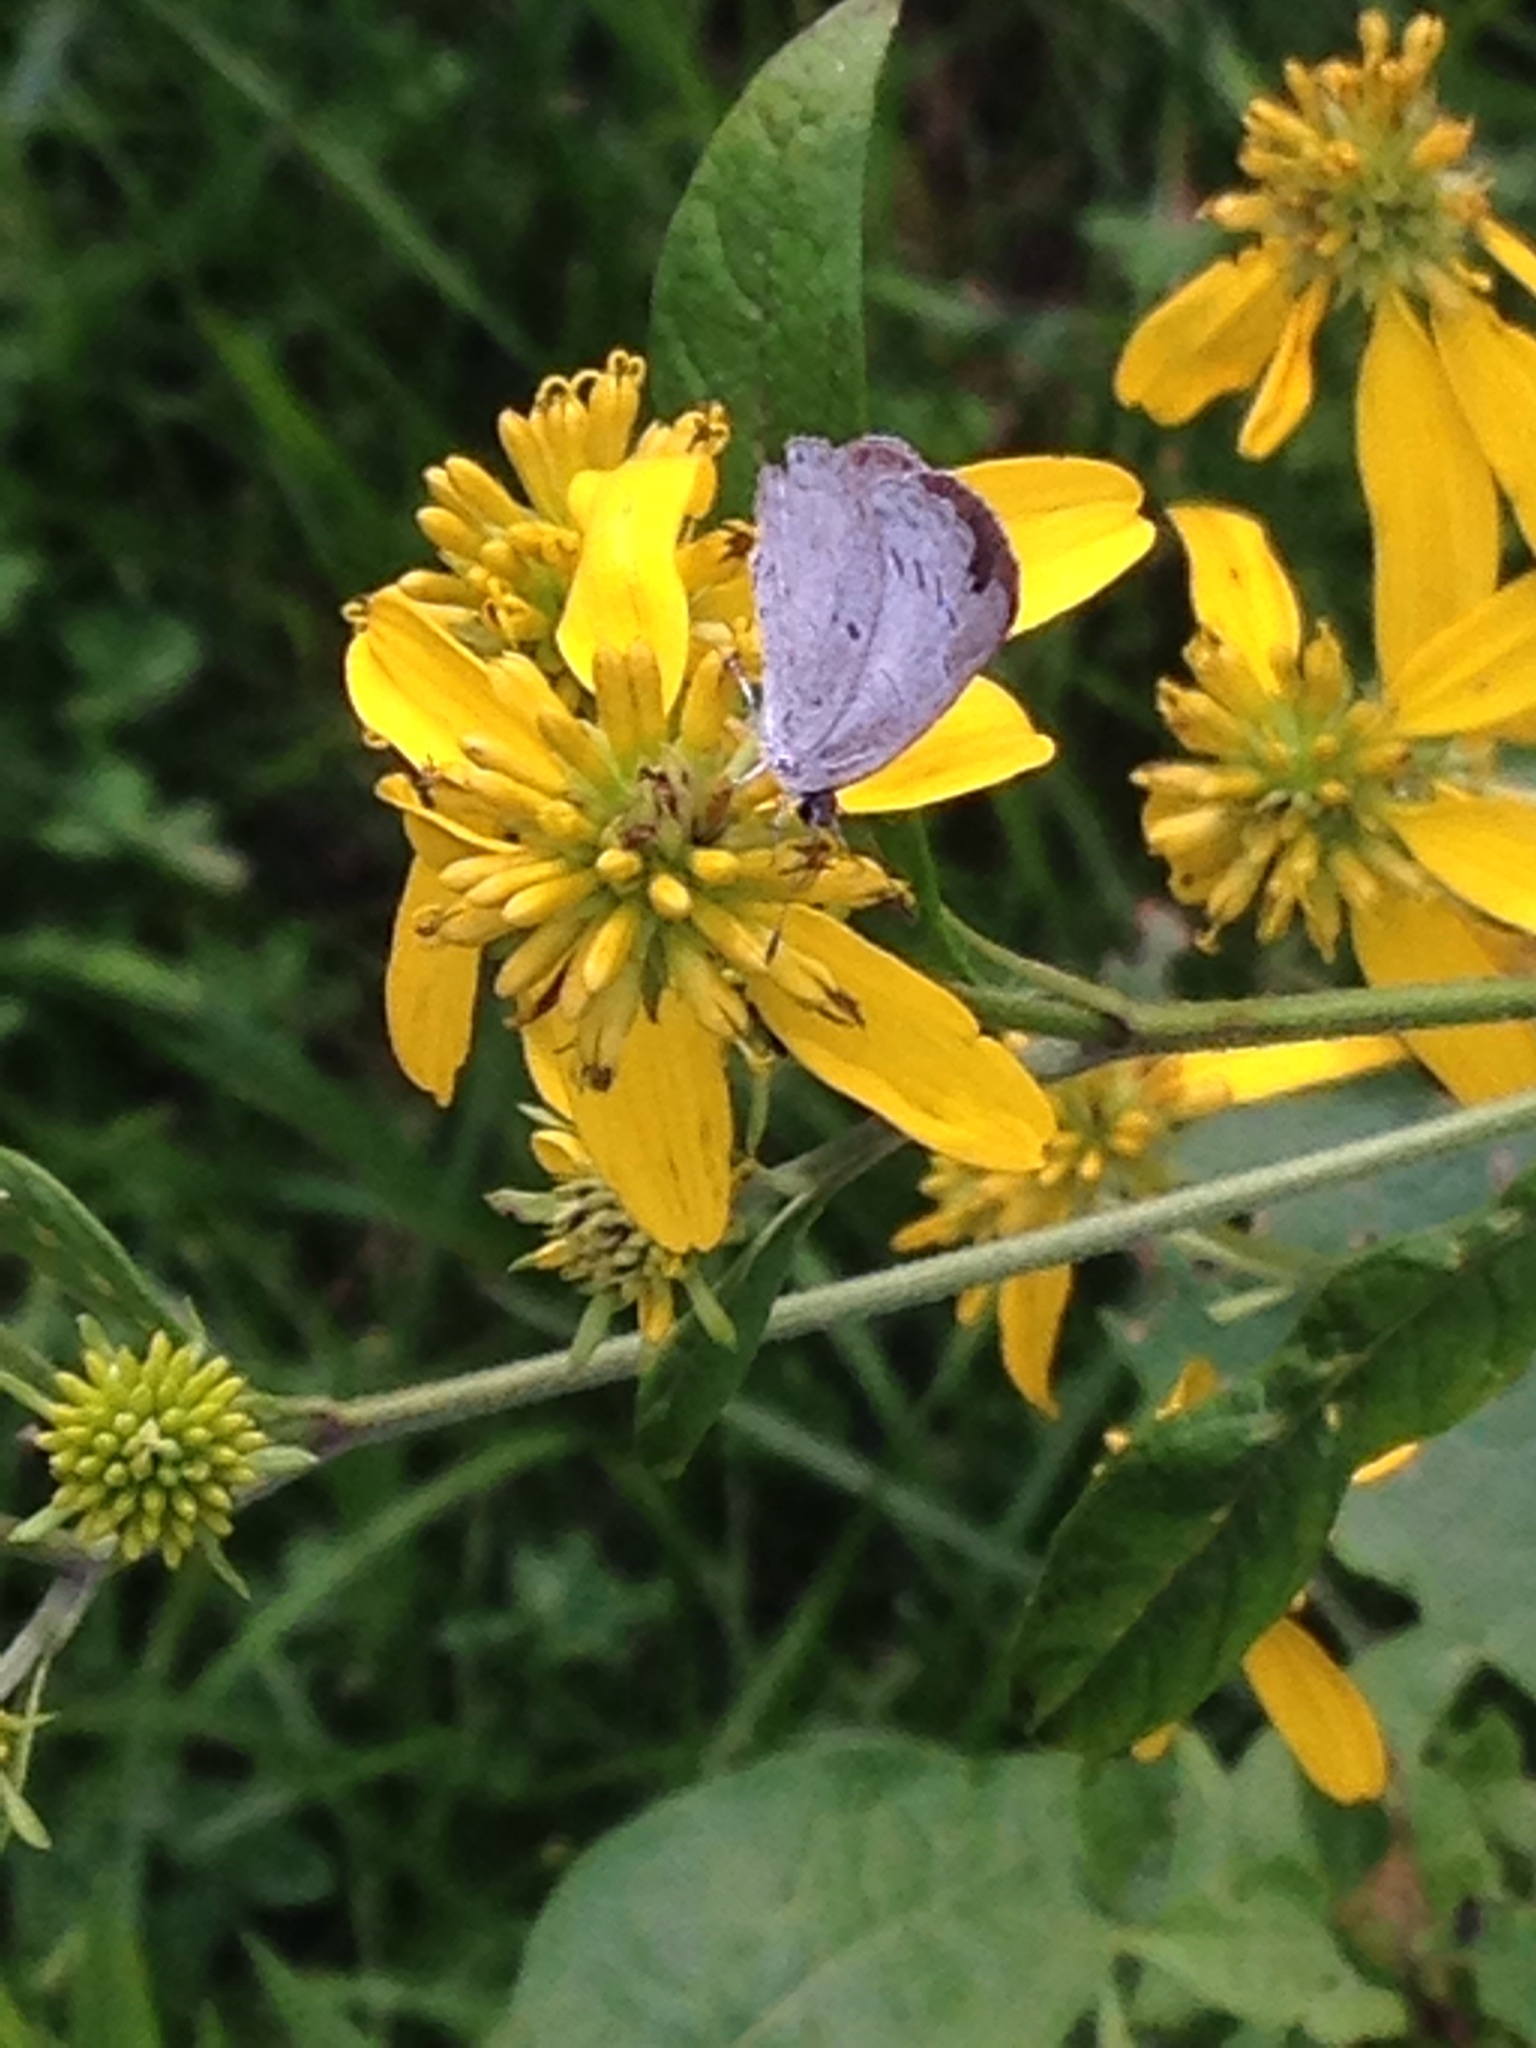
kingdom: Animalia
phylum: Arthropoda
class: Insecta
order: Lepidoptera
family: Lycaenidae
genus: Cyaniris
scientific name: Cyaniris neglecta
